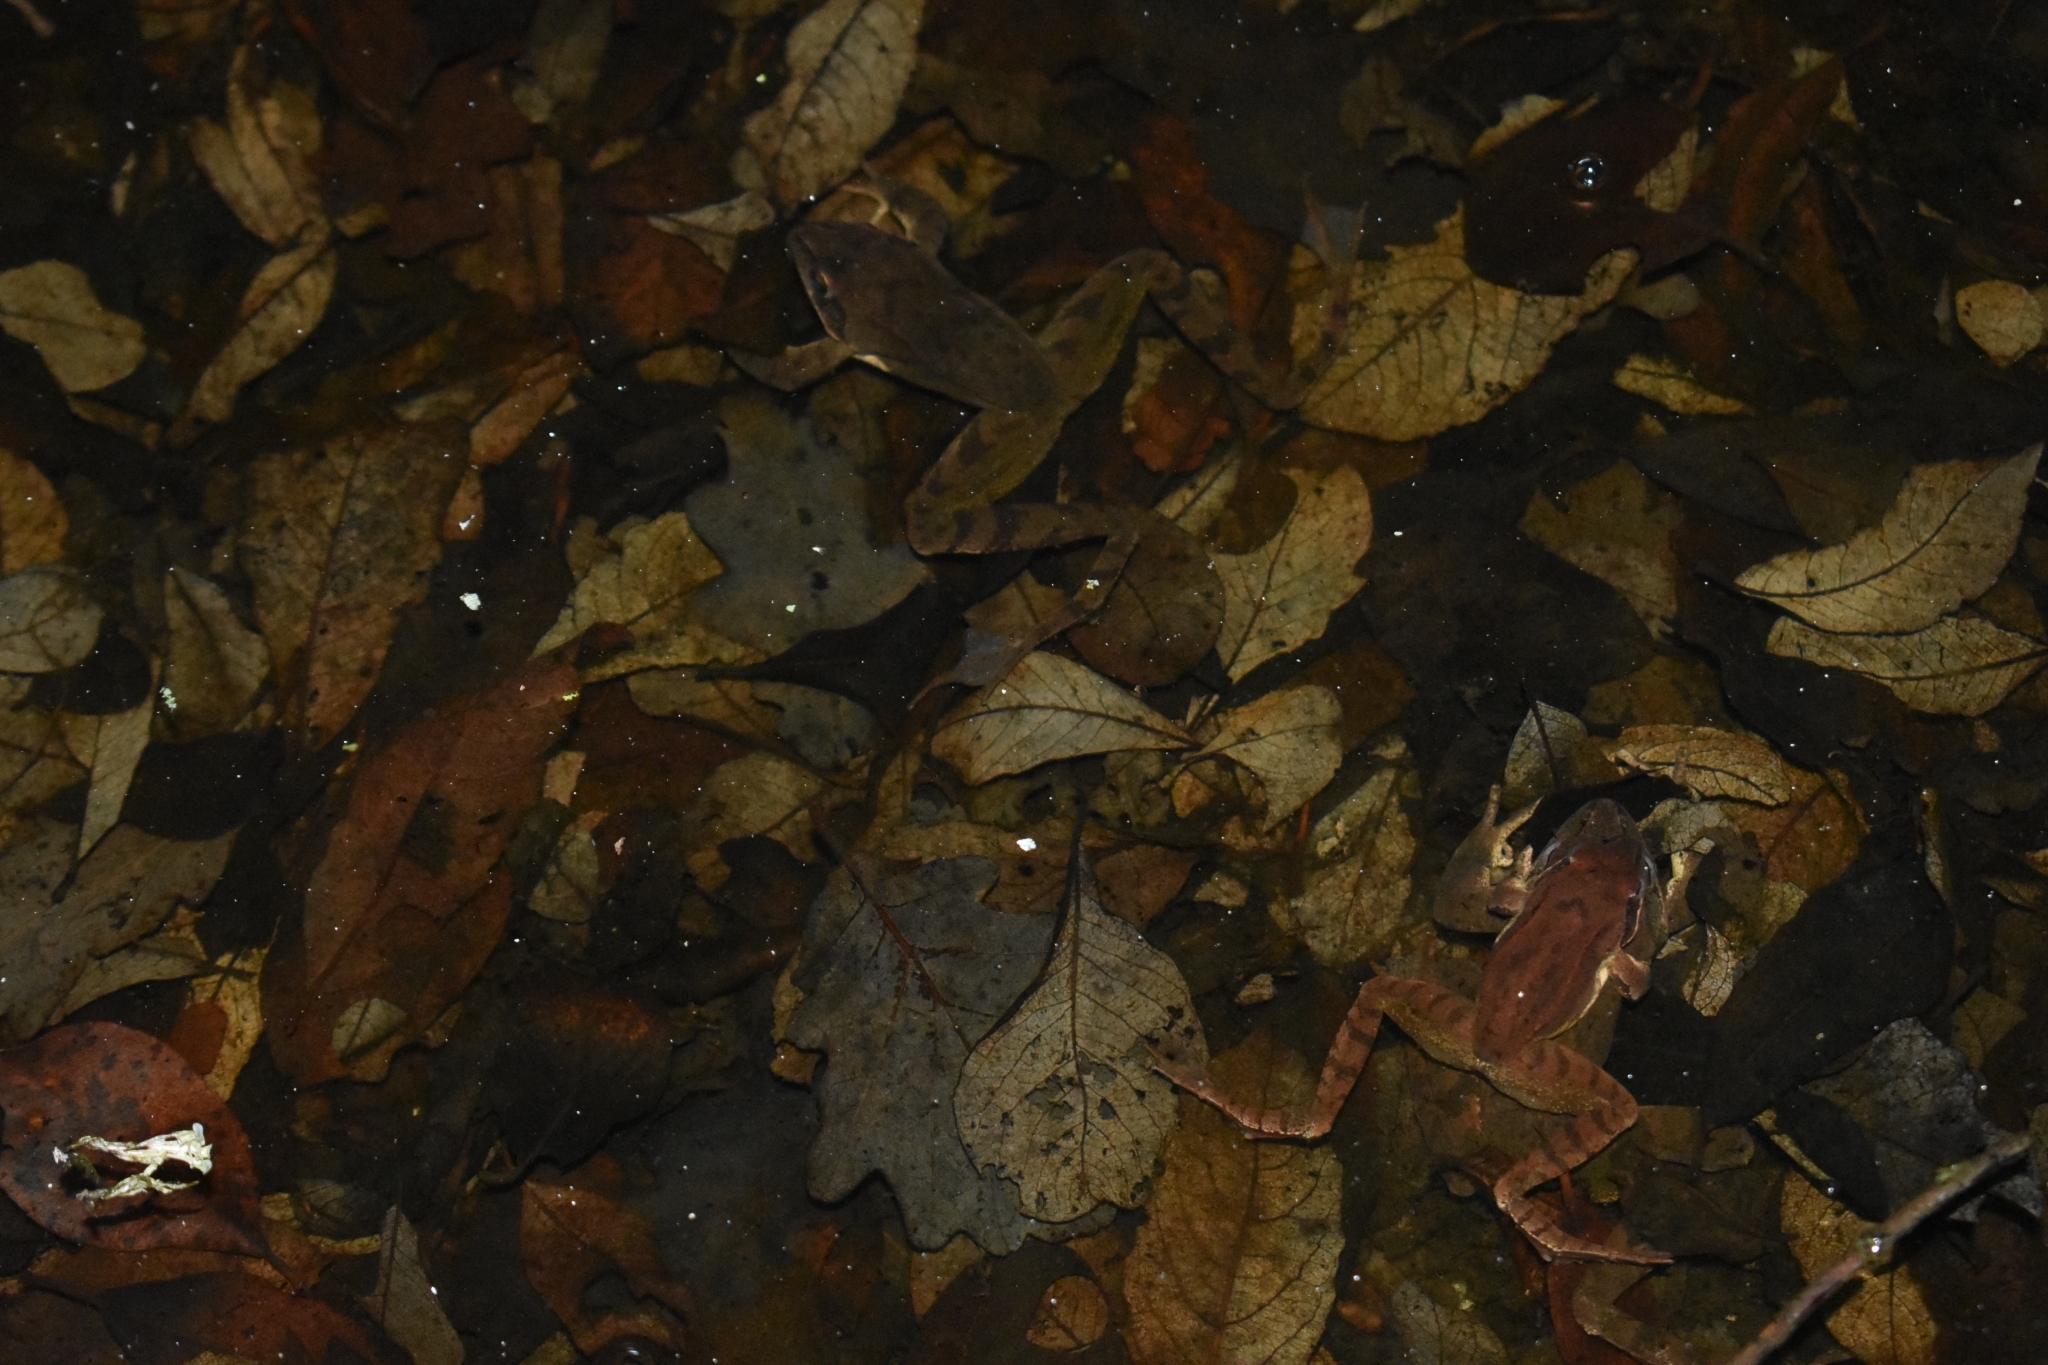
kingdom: Animalia
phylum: Chordata
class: Amphibia
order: Anura
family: Ranidae
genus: Rana
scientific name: Rana dalmatina
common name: Agile frog
